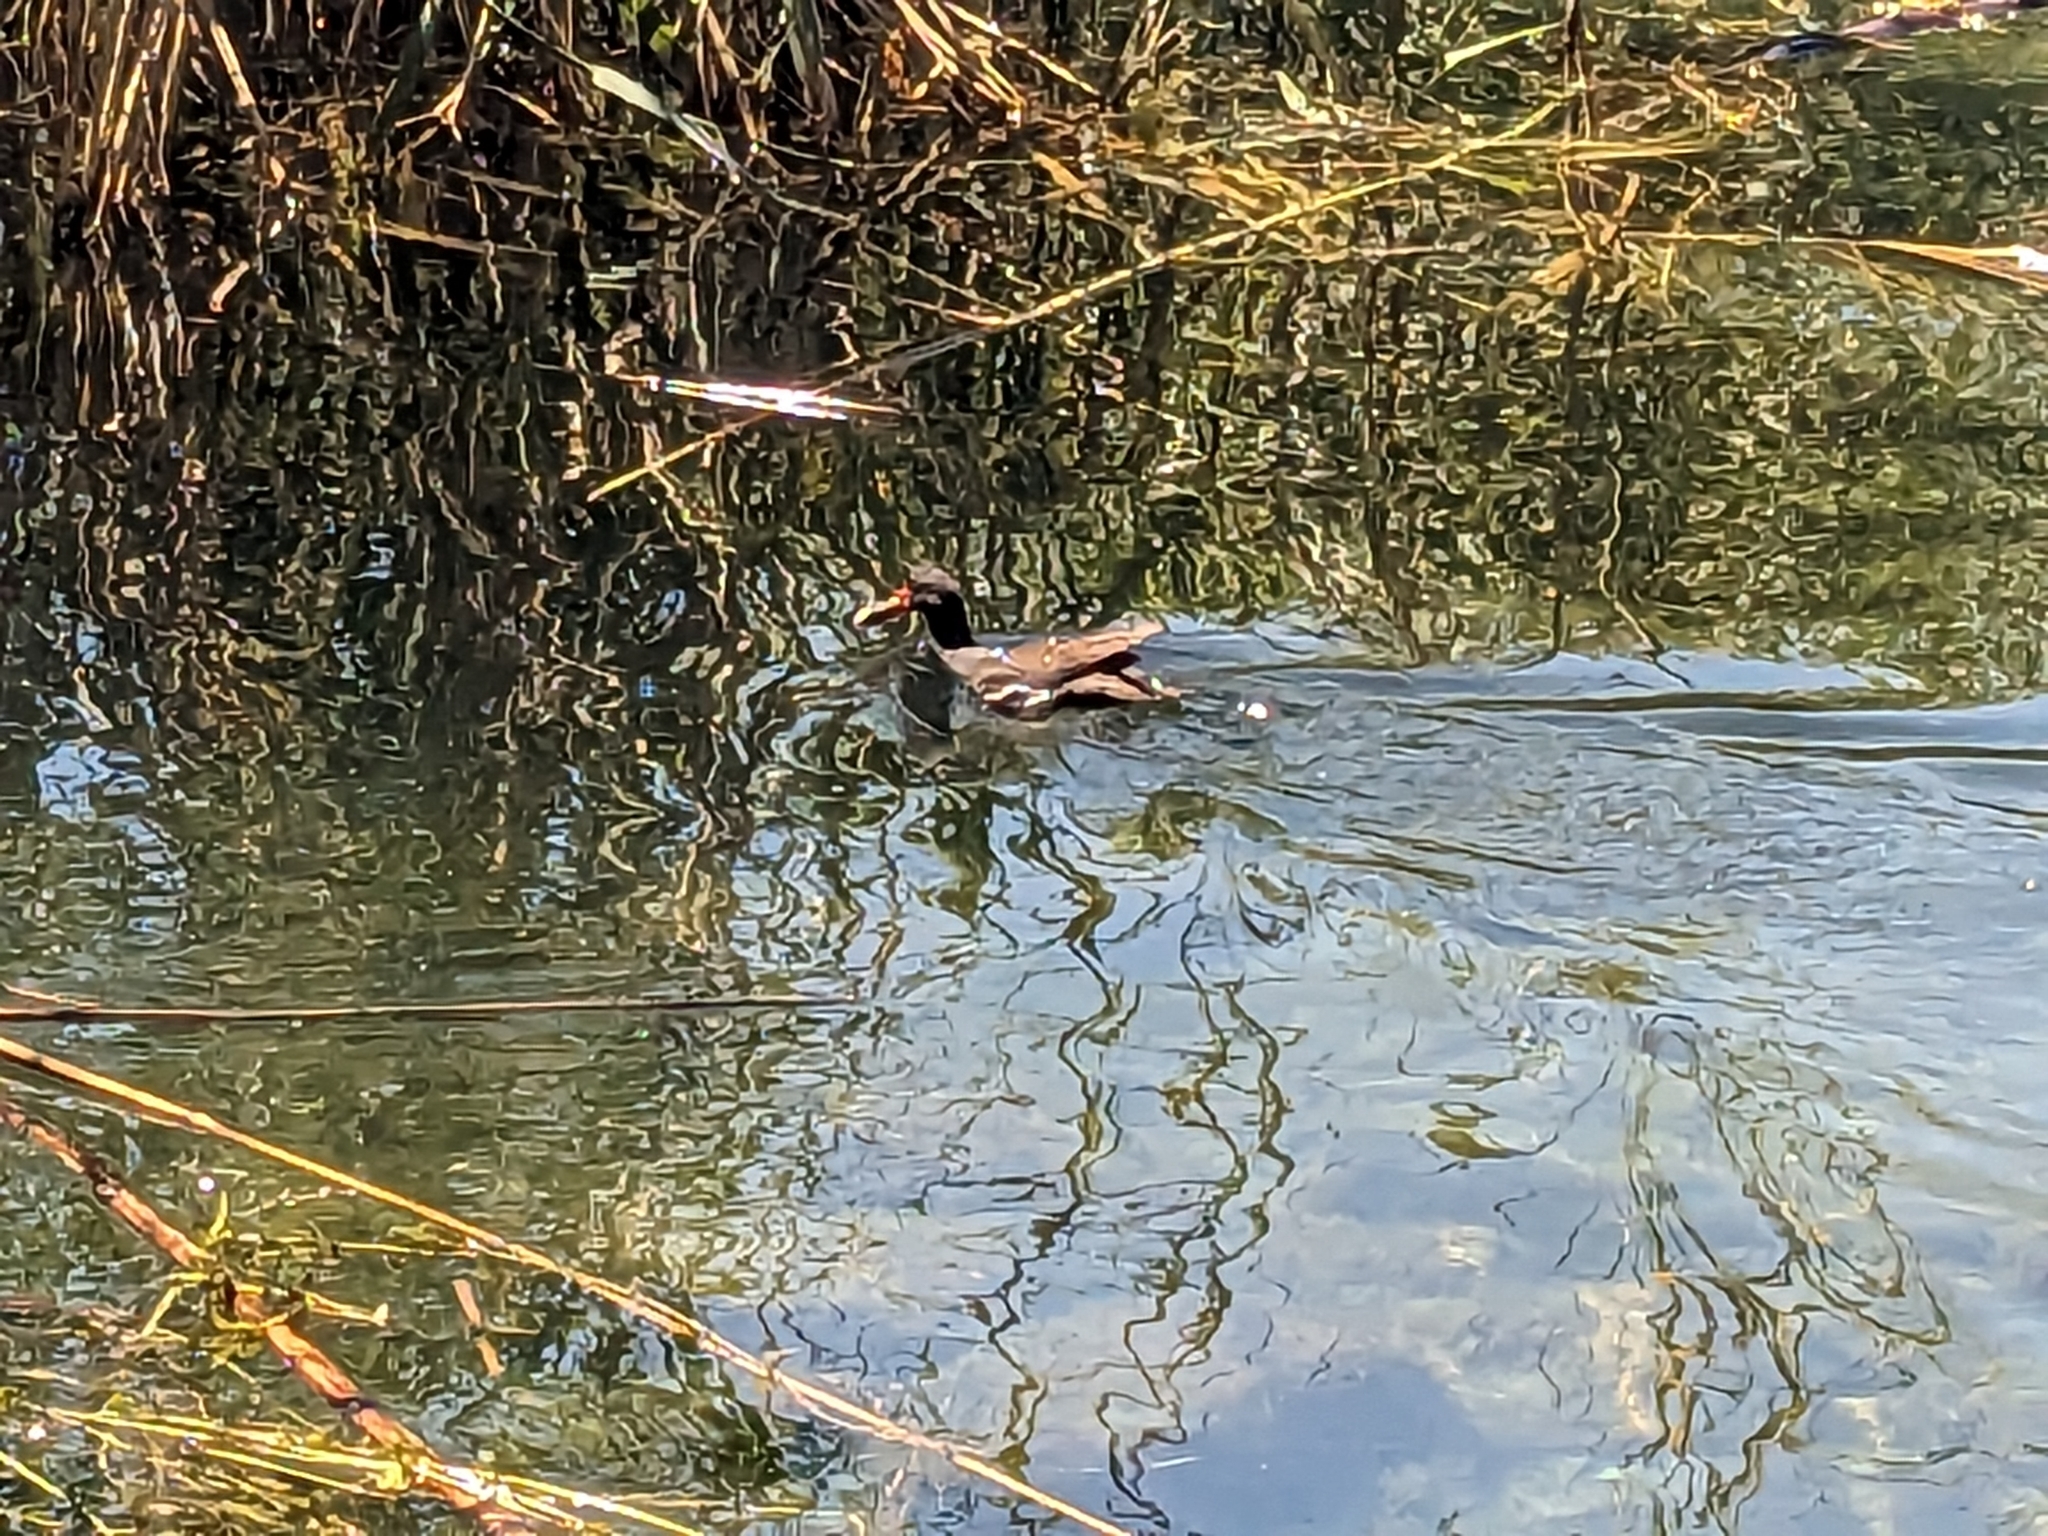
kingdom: Animalia
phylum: Chordata
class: Aves
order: Gruiformes
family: Rallidae
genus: Gallinula
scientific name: Gallinula chloropus
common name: Common moorhen
